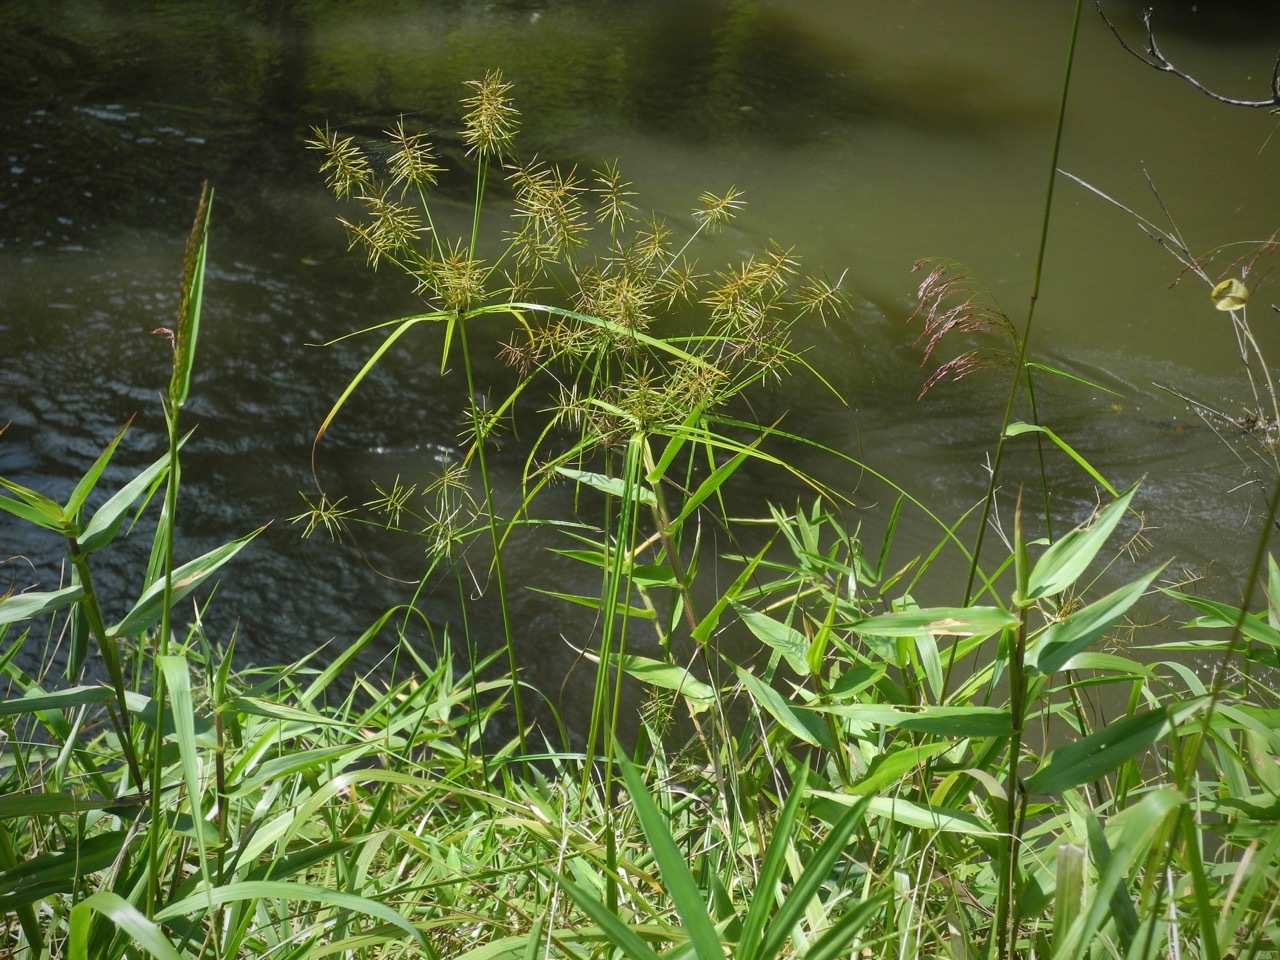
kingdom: Plantae
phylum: Tracheophyta
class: Liliopsida
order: Poales
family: Cyperaceae
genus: Cyperus
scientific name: Cyperus refractus
